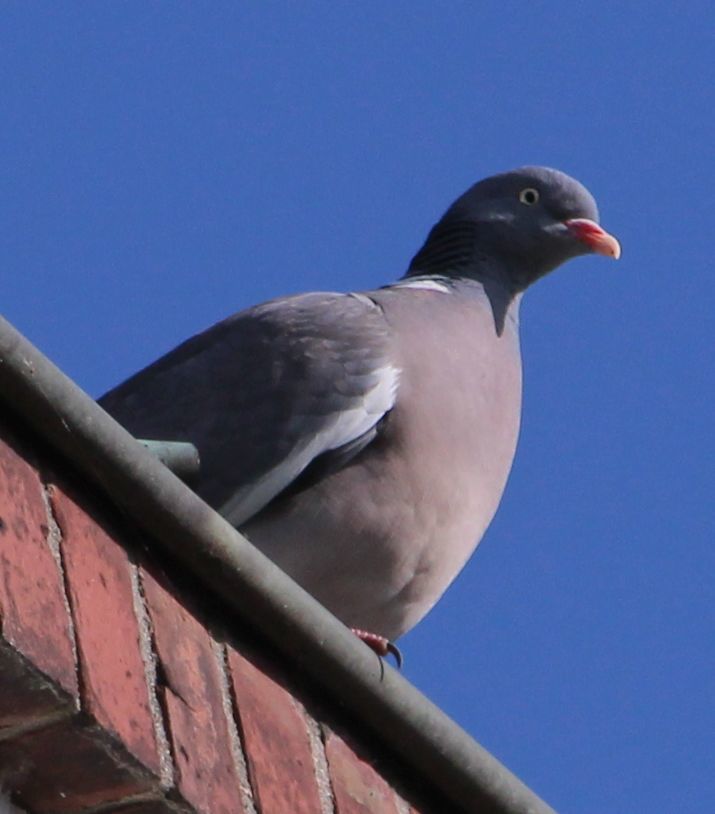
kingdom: Animalia
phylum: Chordata
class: Aves
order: Columbiformes
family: Columbidae
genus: Columba
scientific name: Columba palumbus
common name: Common wood pigeon
